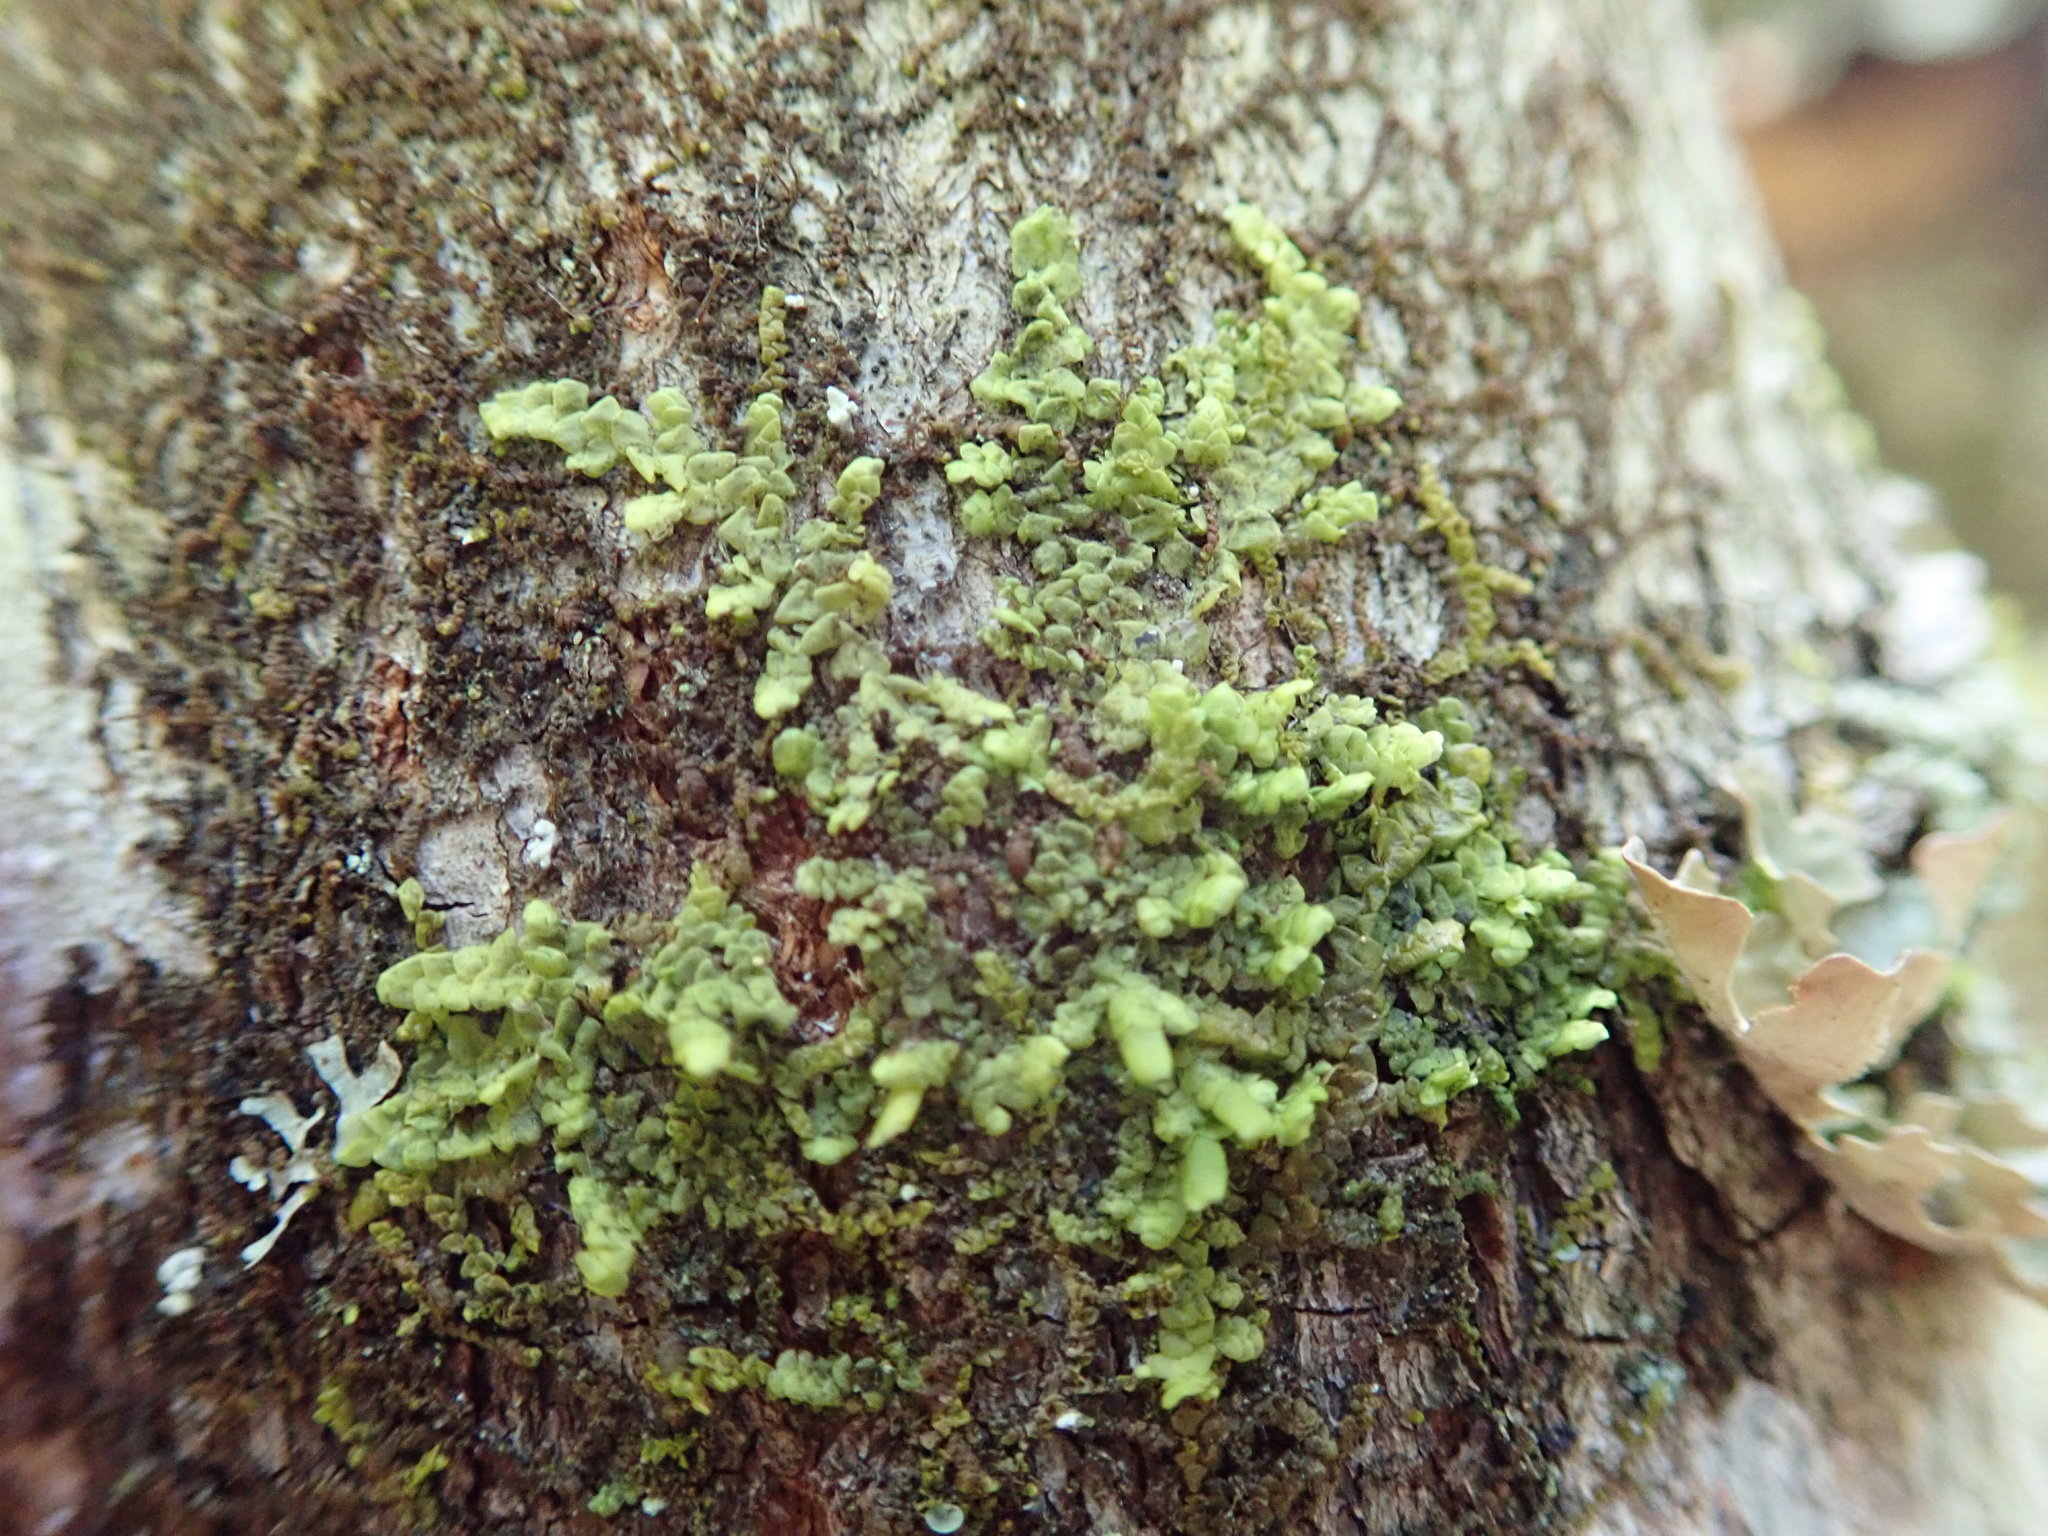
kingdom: Plantae
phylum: Marchantiophyta
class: Jungermanniopsida
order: Porellales
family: Radulaceae
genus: Radula
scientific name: Radula complanata
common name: Flat-leaved scalewort
